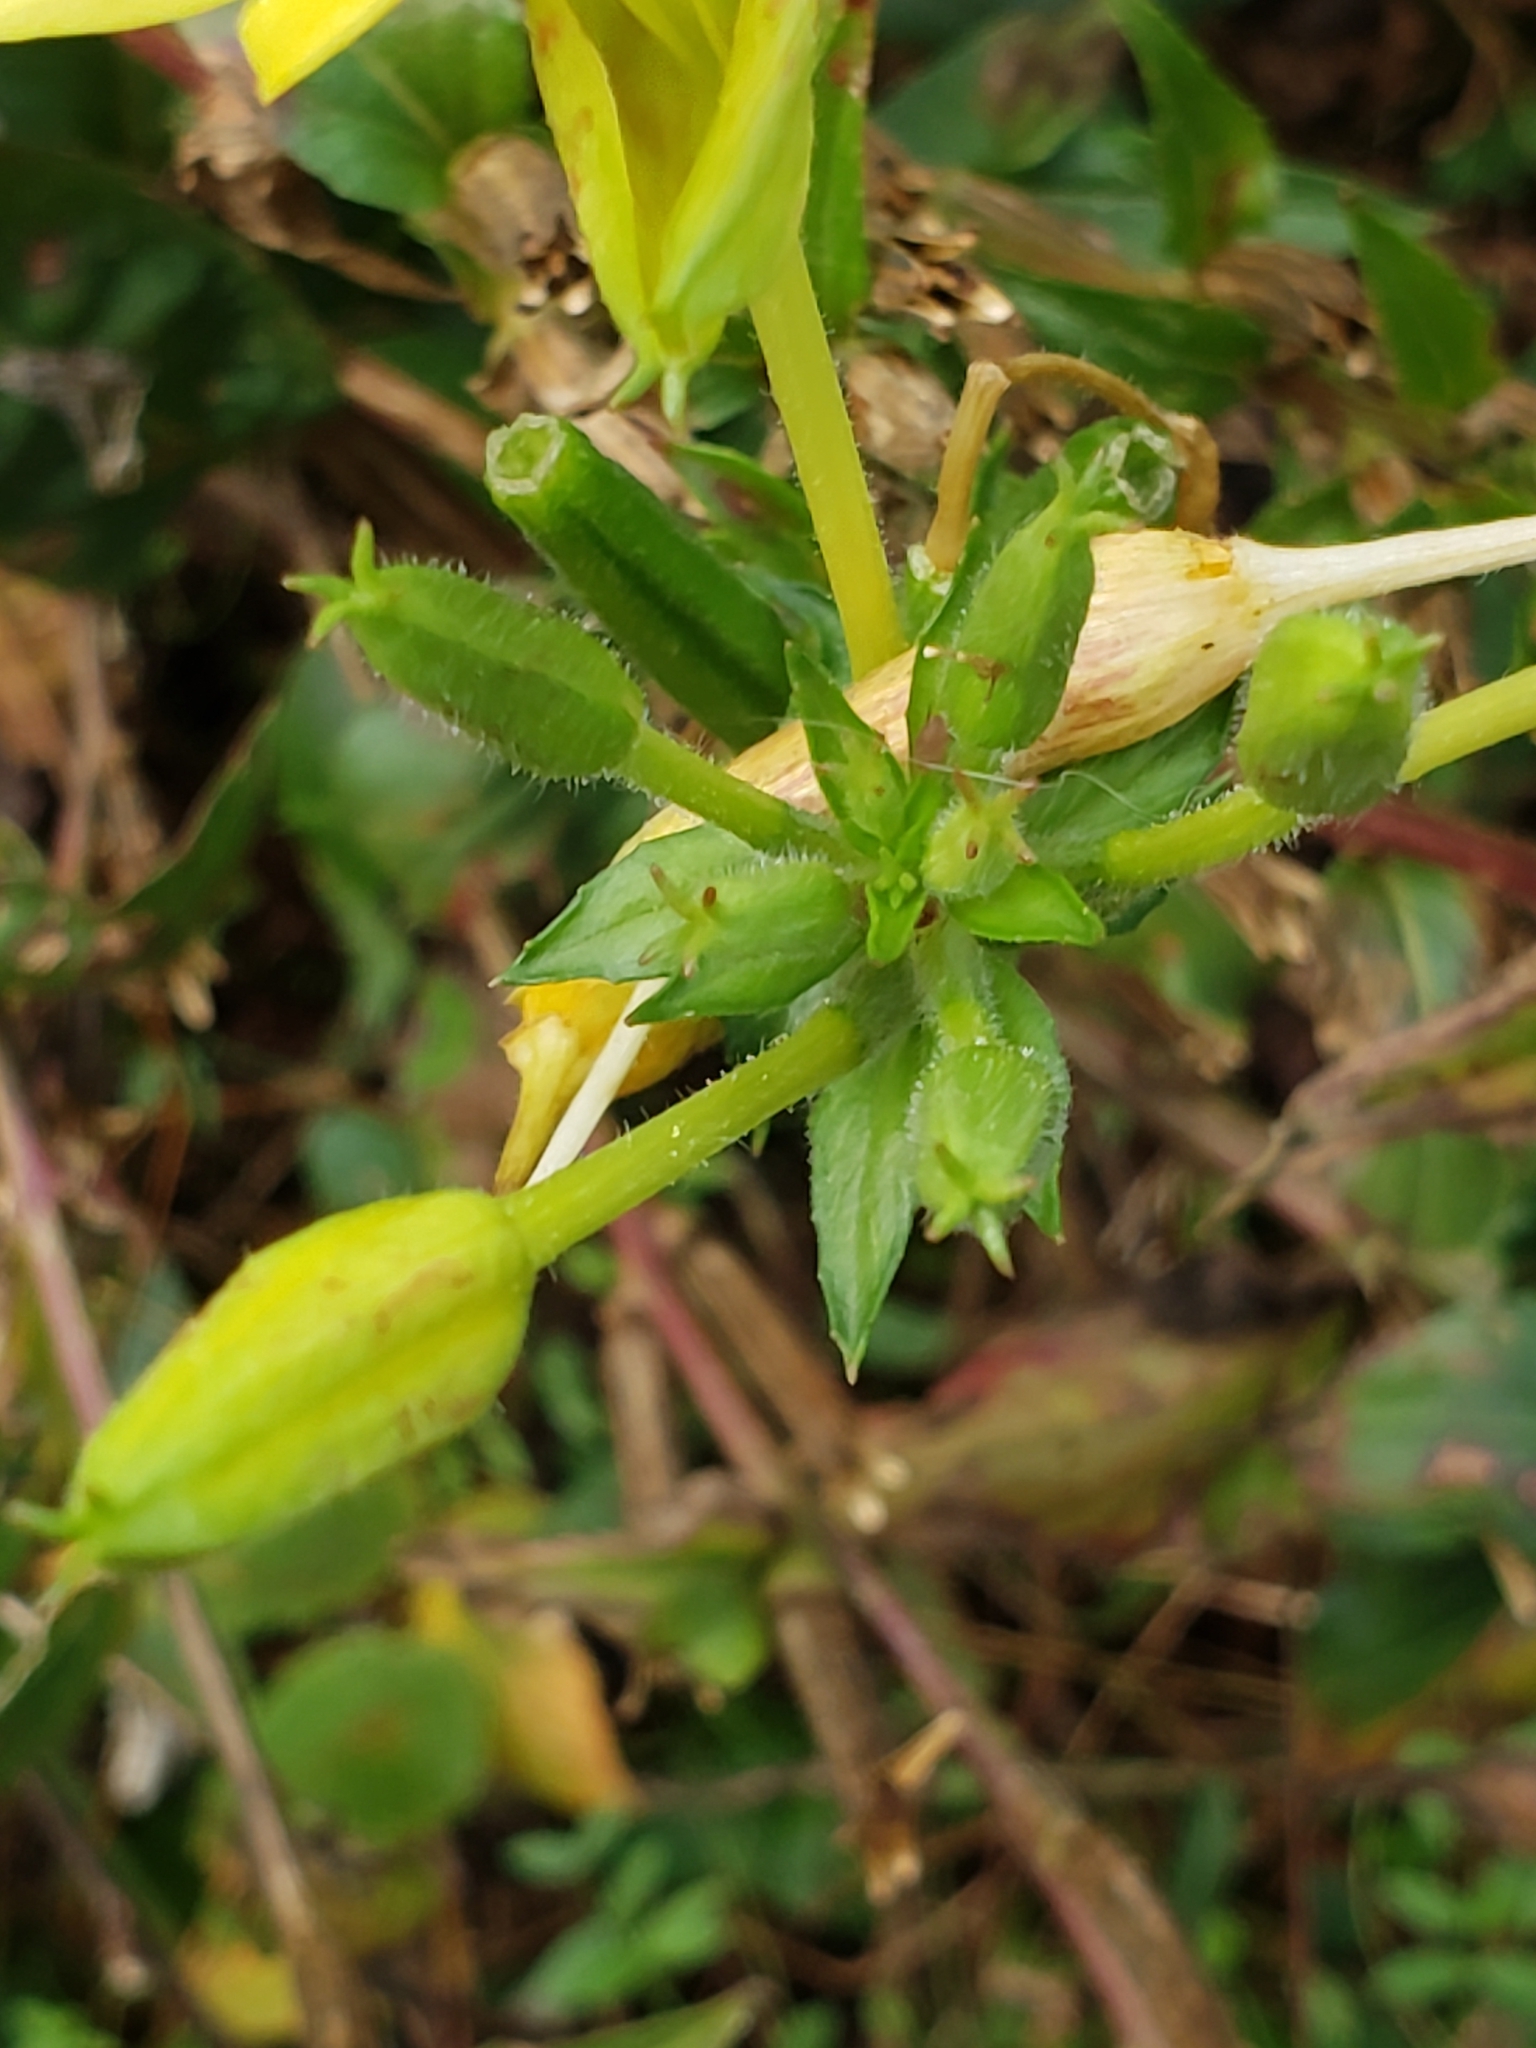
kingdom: Plantae
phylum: Tracheophyta
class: Magnoliopsida
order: Myrtales
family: Onagraceae
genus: Oenothera
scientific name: Oenothera biennis
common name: Common evening-primrose
